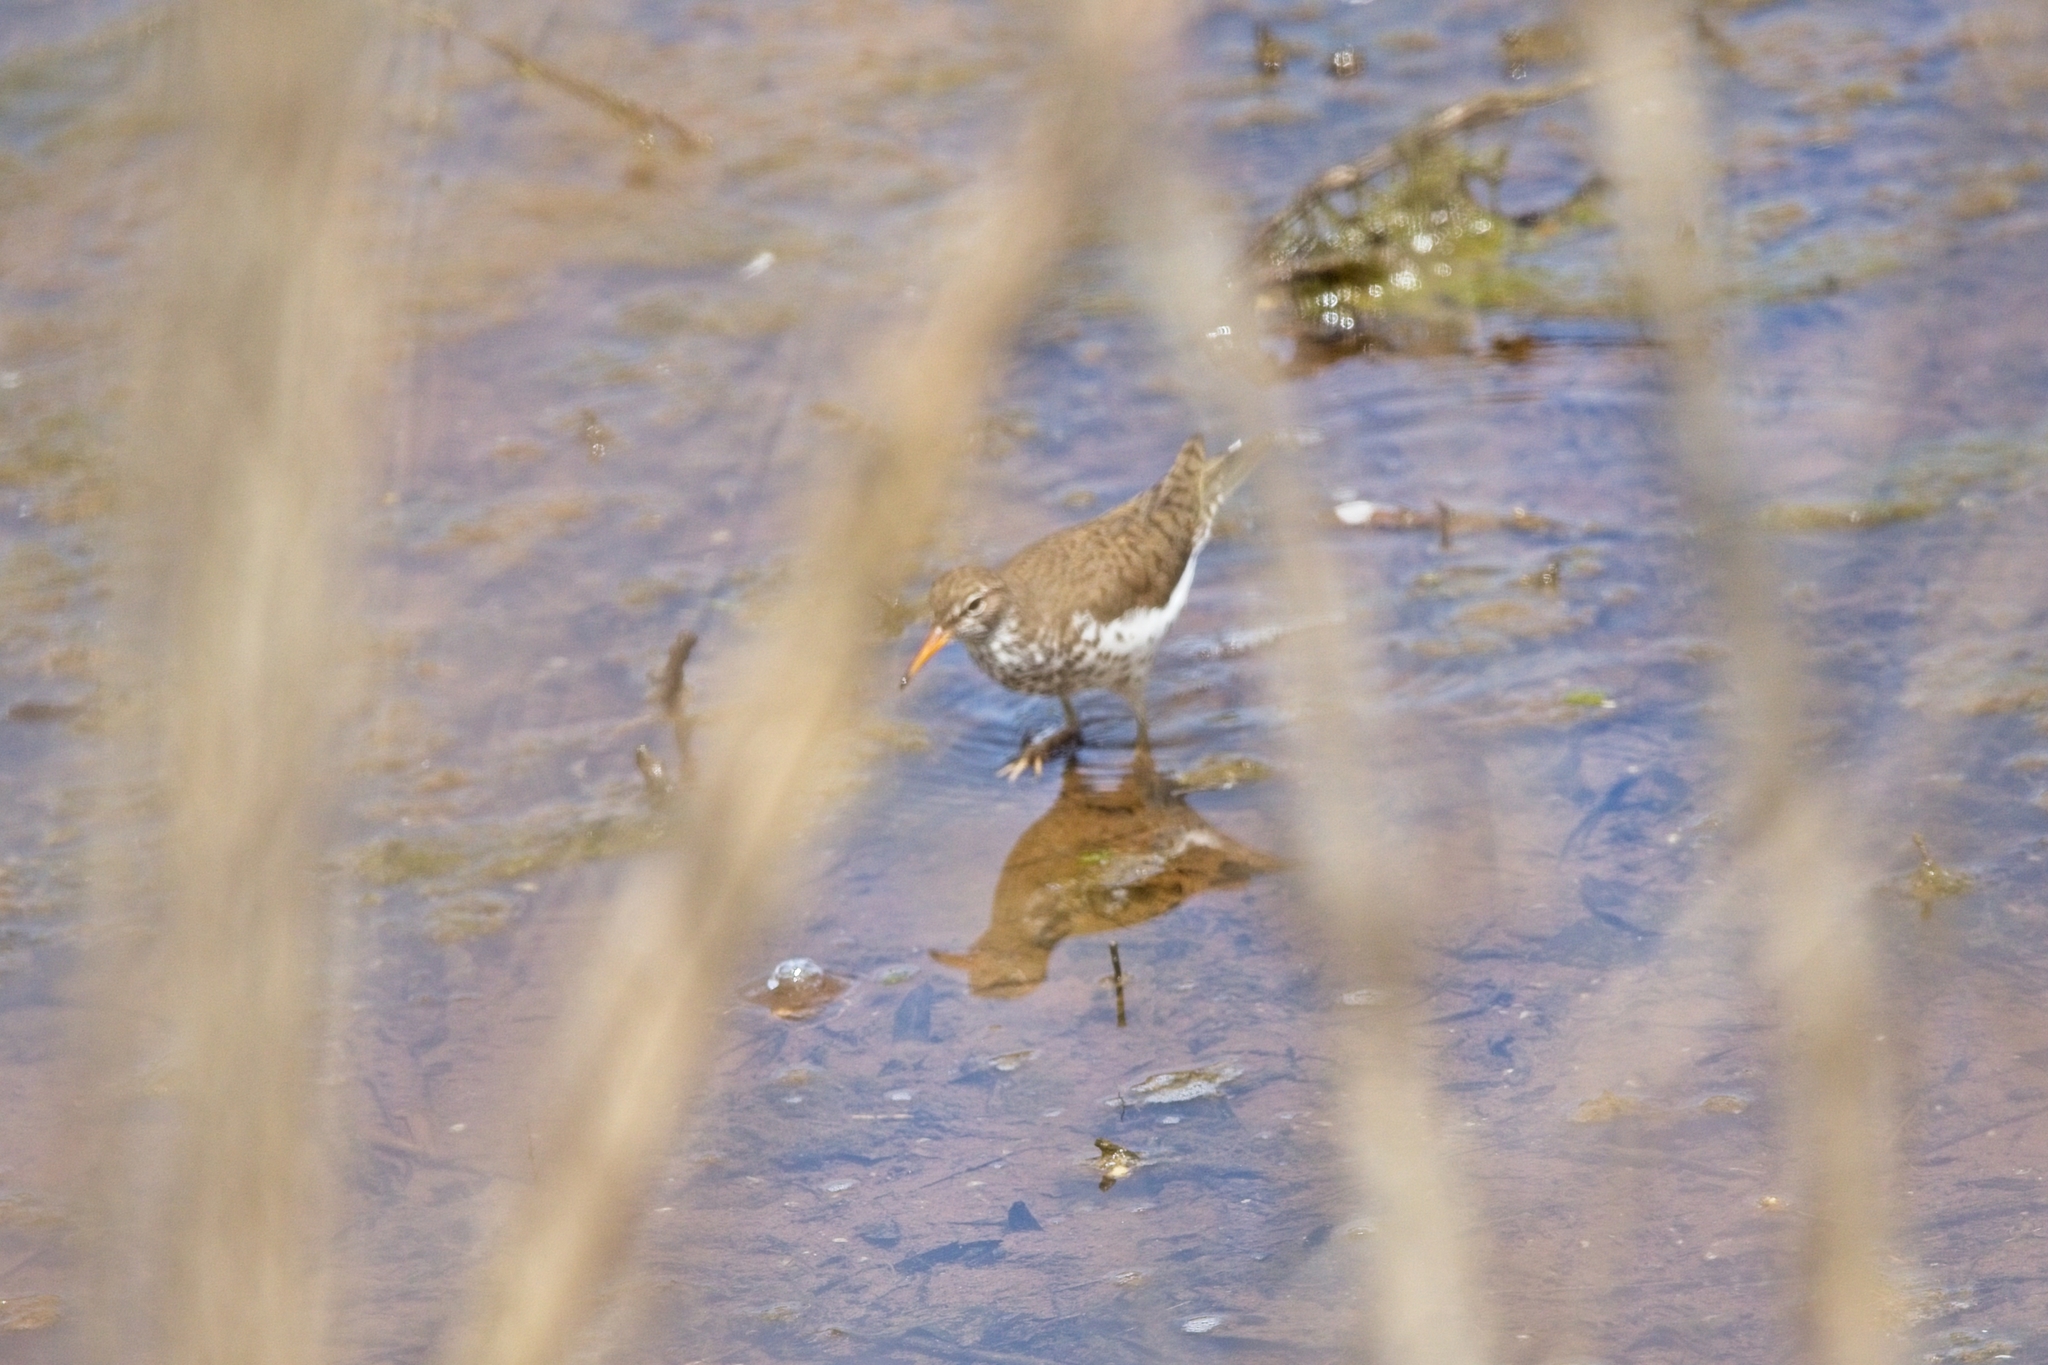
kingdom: Animalia
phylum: Chordata
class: Aves
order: Charadriiformes
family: Scolopacidae
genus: Actitis
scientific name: Actitis macularius
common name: Spotted sandpiper
